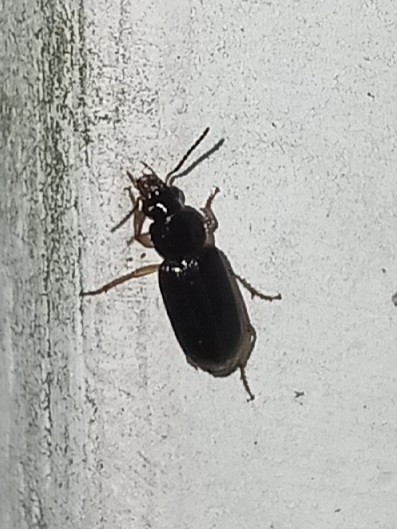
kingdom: Animalia
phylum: Arthropoda
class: Insecta
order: Coleoptera
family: Carabidae
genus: Stenolophus
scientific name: Stenolophus ochropezus
